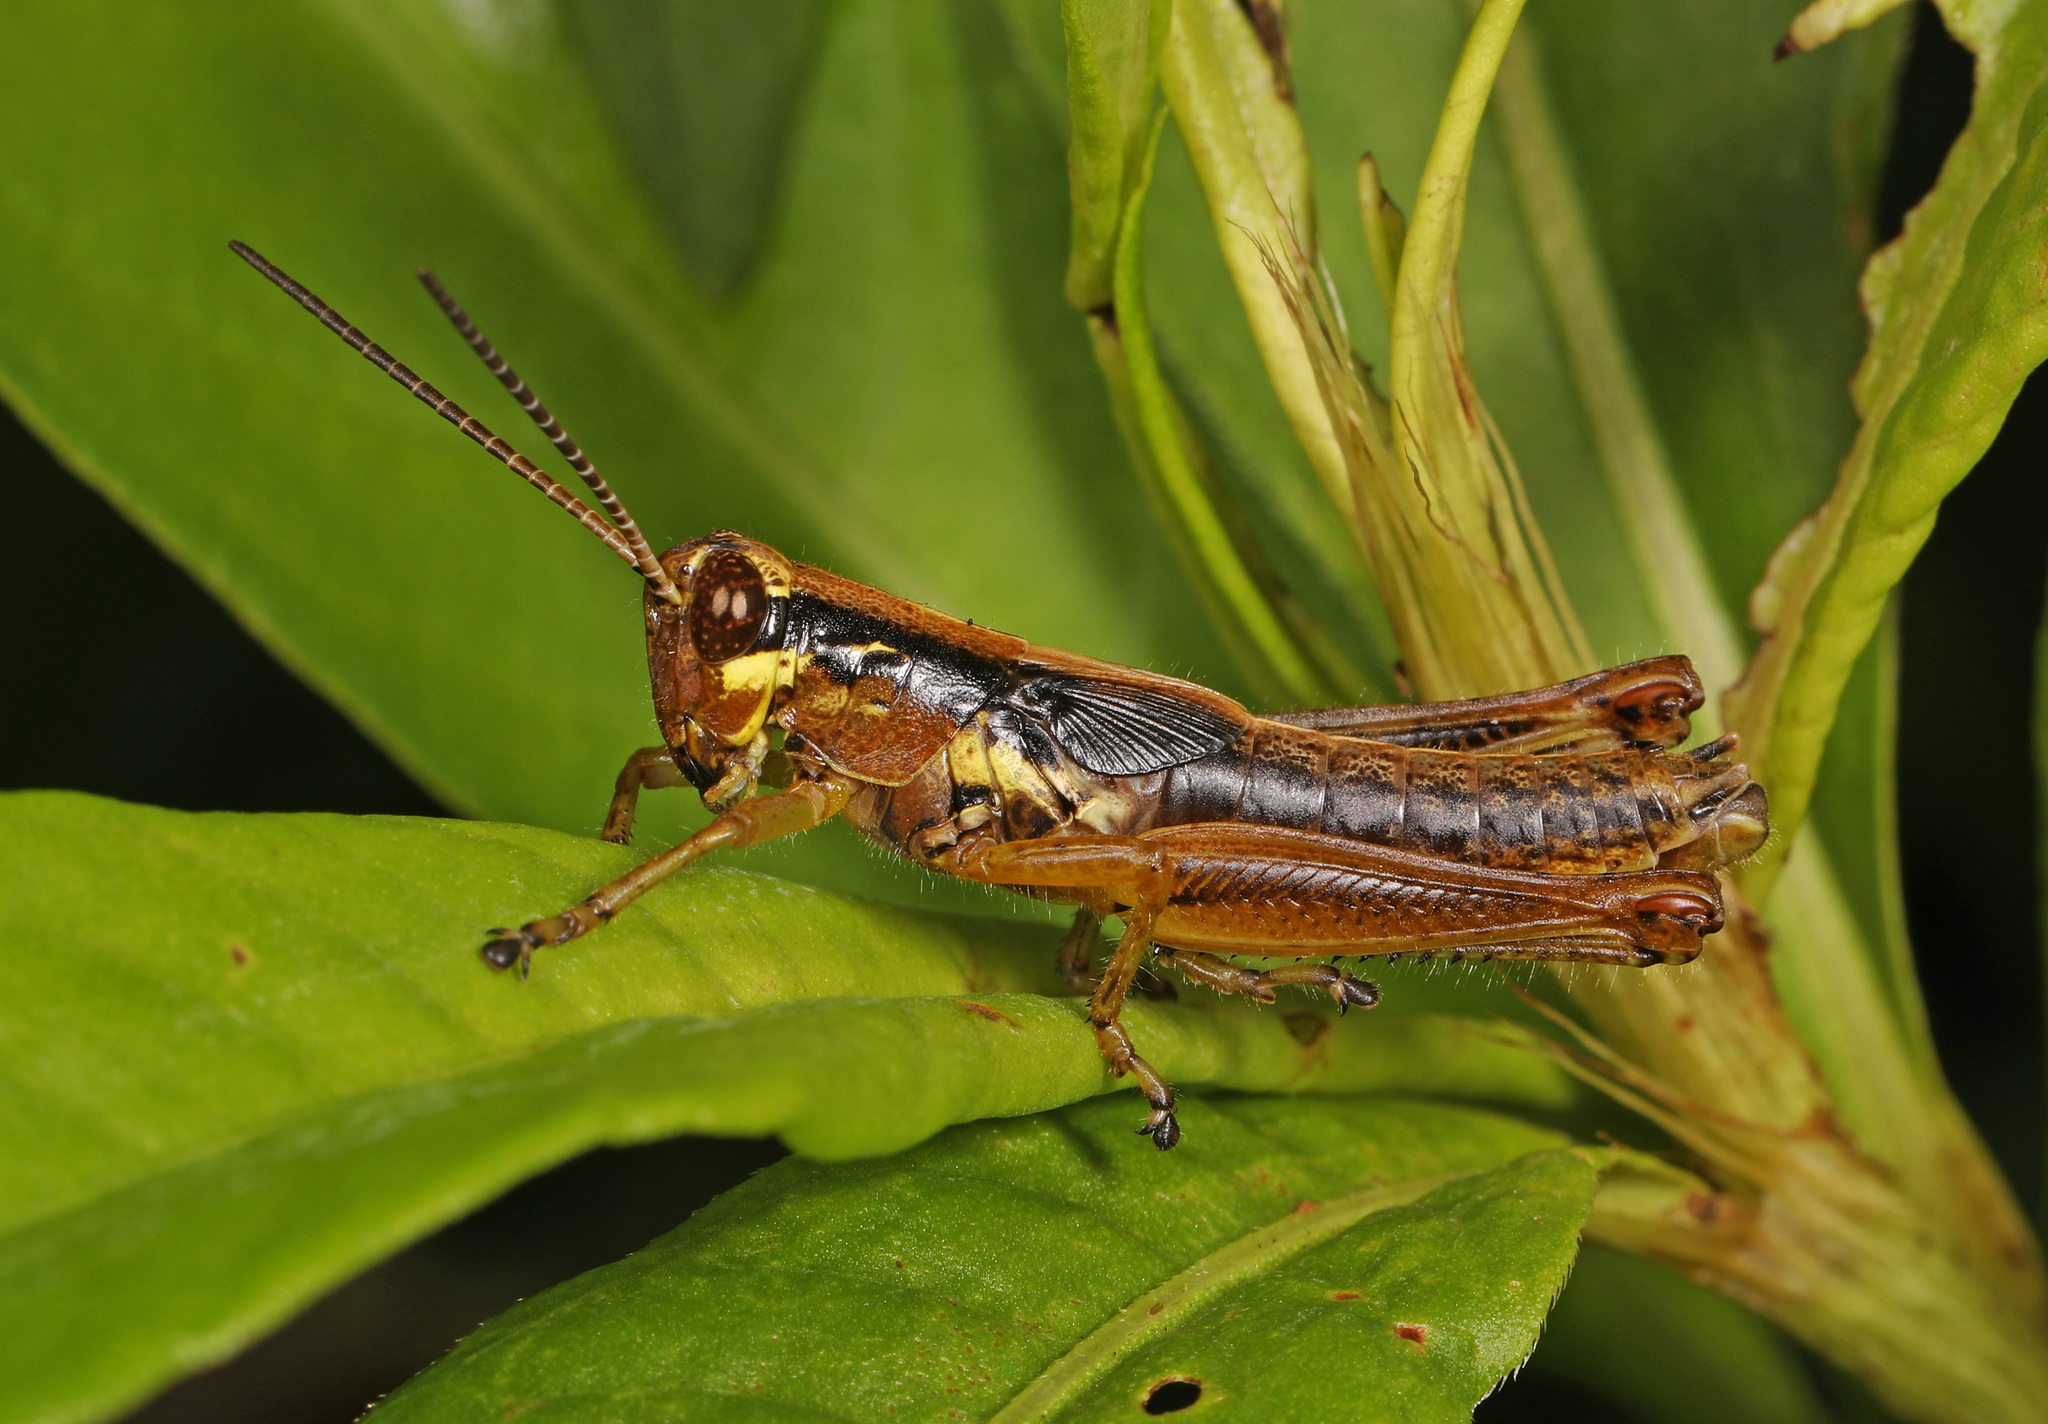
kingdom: Animalia
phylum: Arthropoda
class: Insecta
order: Orthoptera
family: Acrididae
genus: Paroxya
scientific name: Paroxya clavuligera
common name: Olive-green swamp grasshopper
